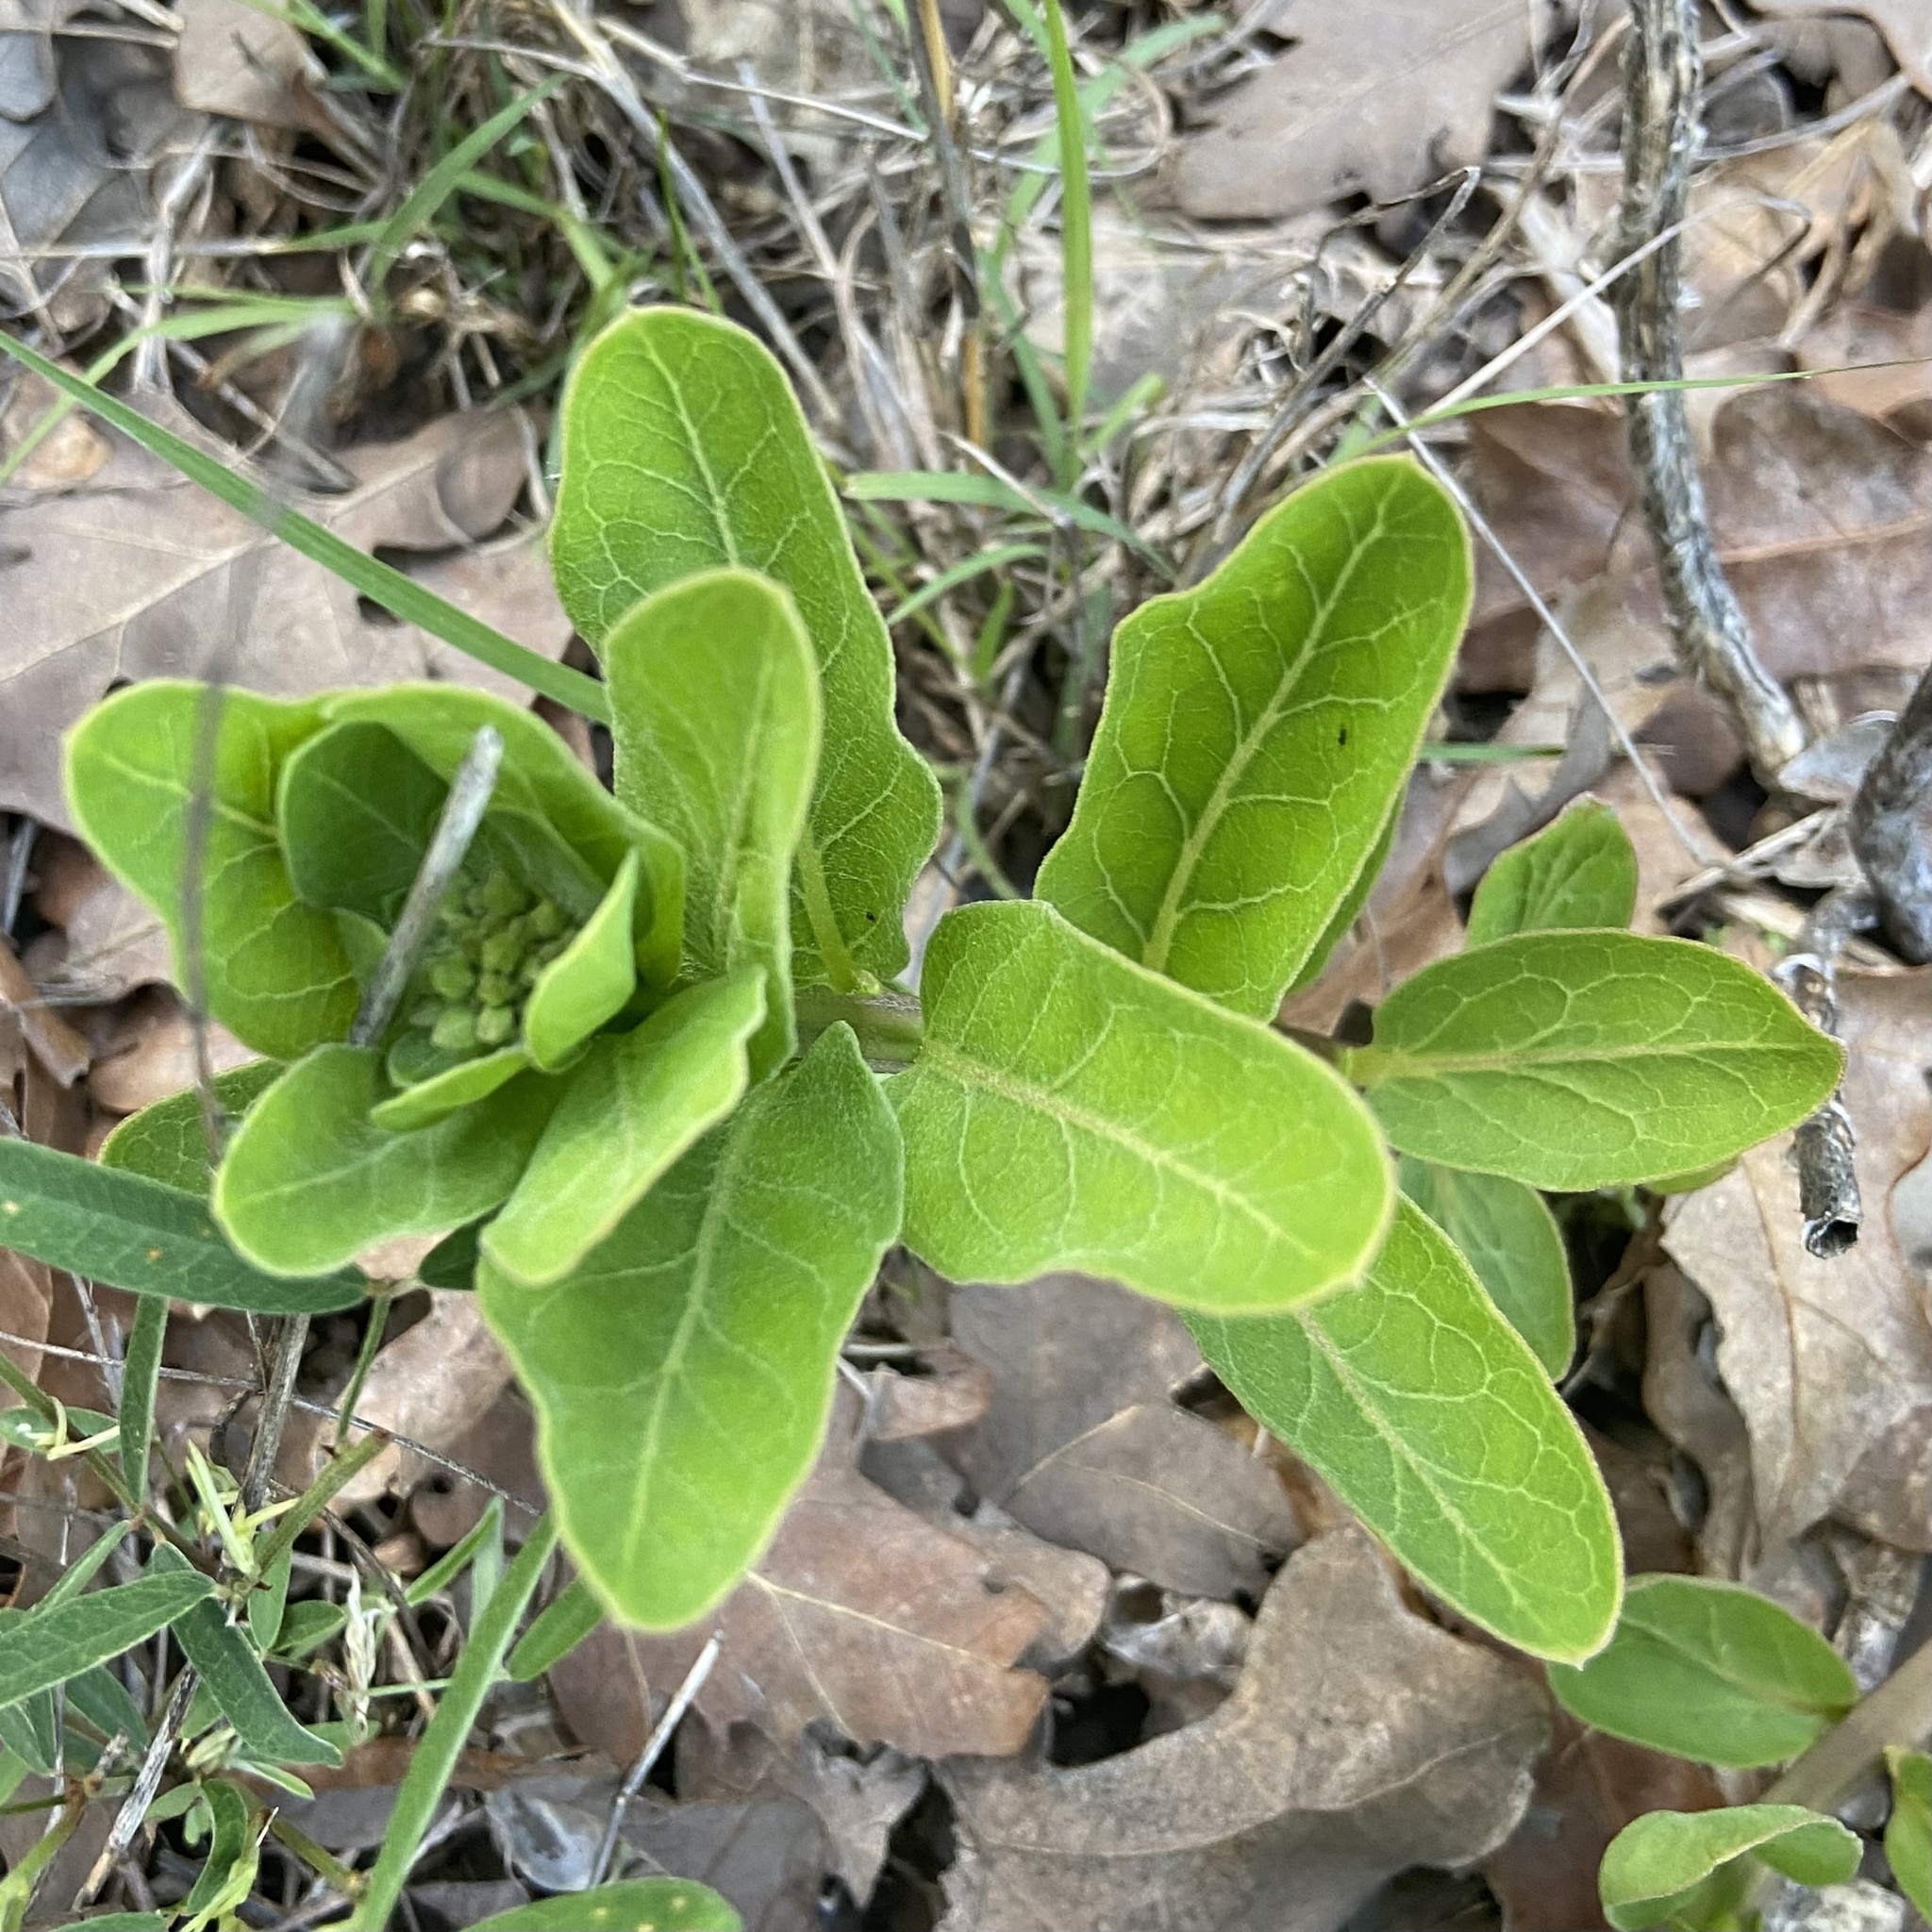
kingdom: Plantae
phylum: Tracheophyta
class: Magnoliopsida
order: Gentianales
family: Apocynaceae
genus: Asclepias
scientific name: Asclepias viridis
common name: Antelope-horns
